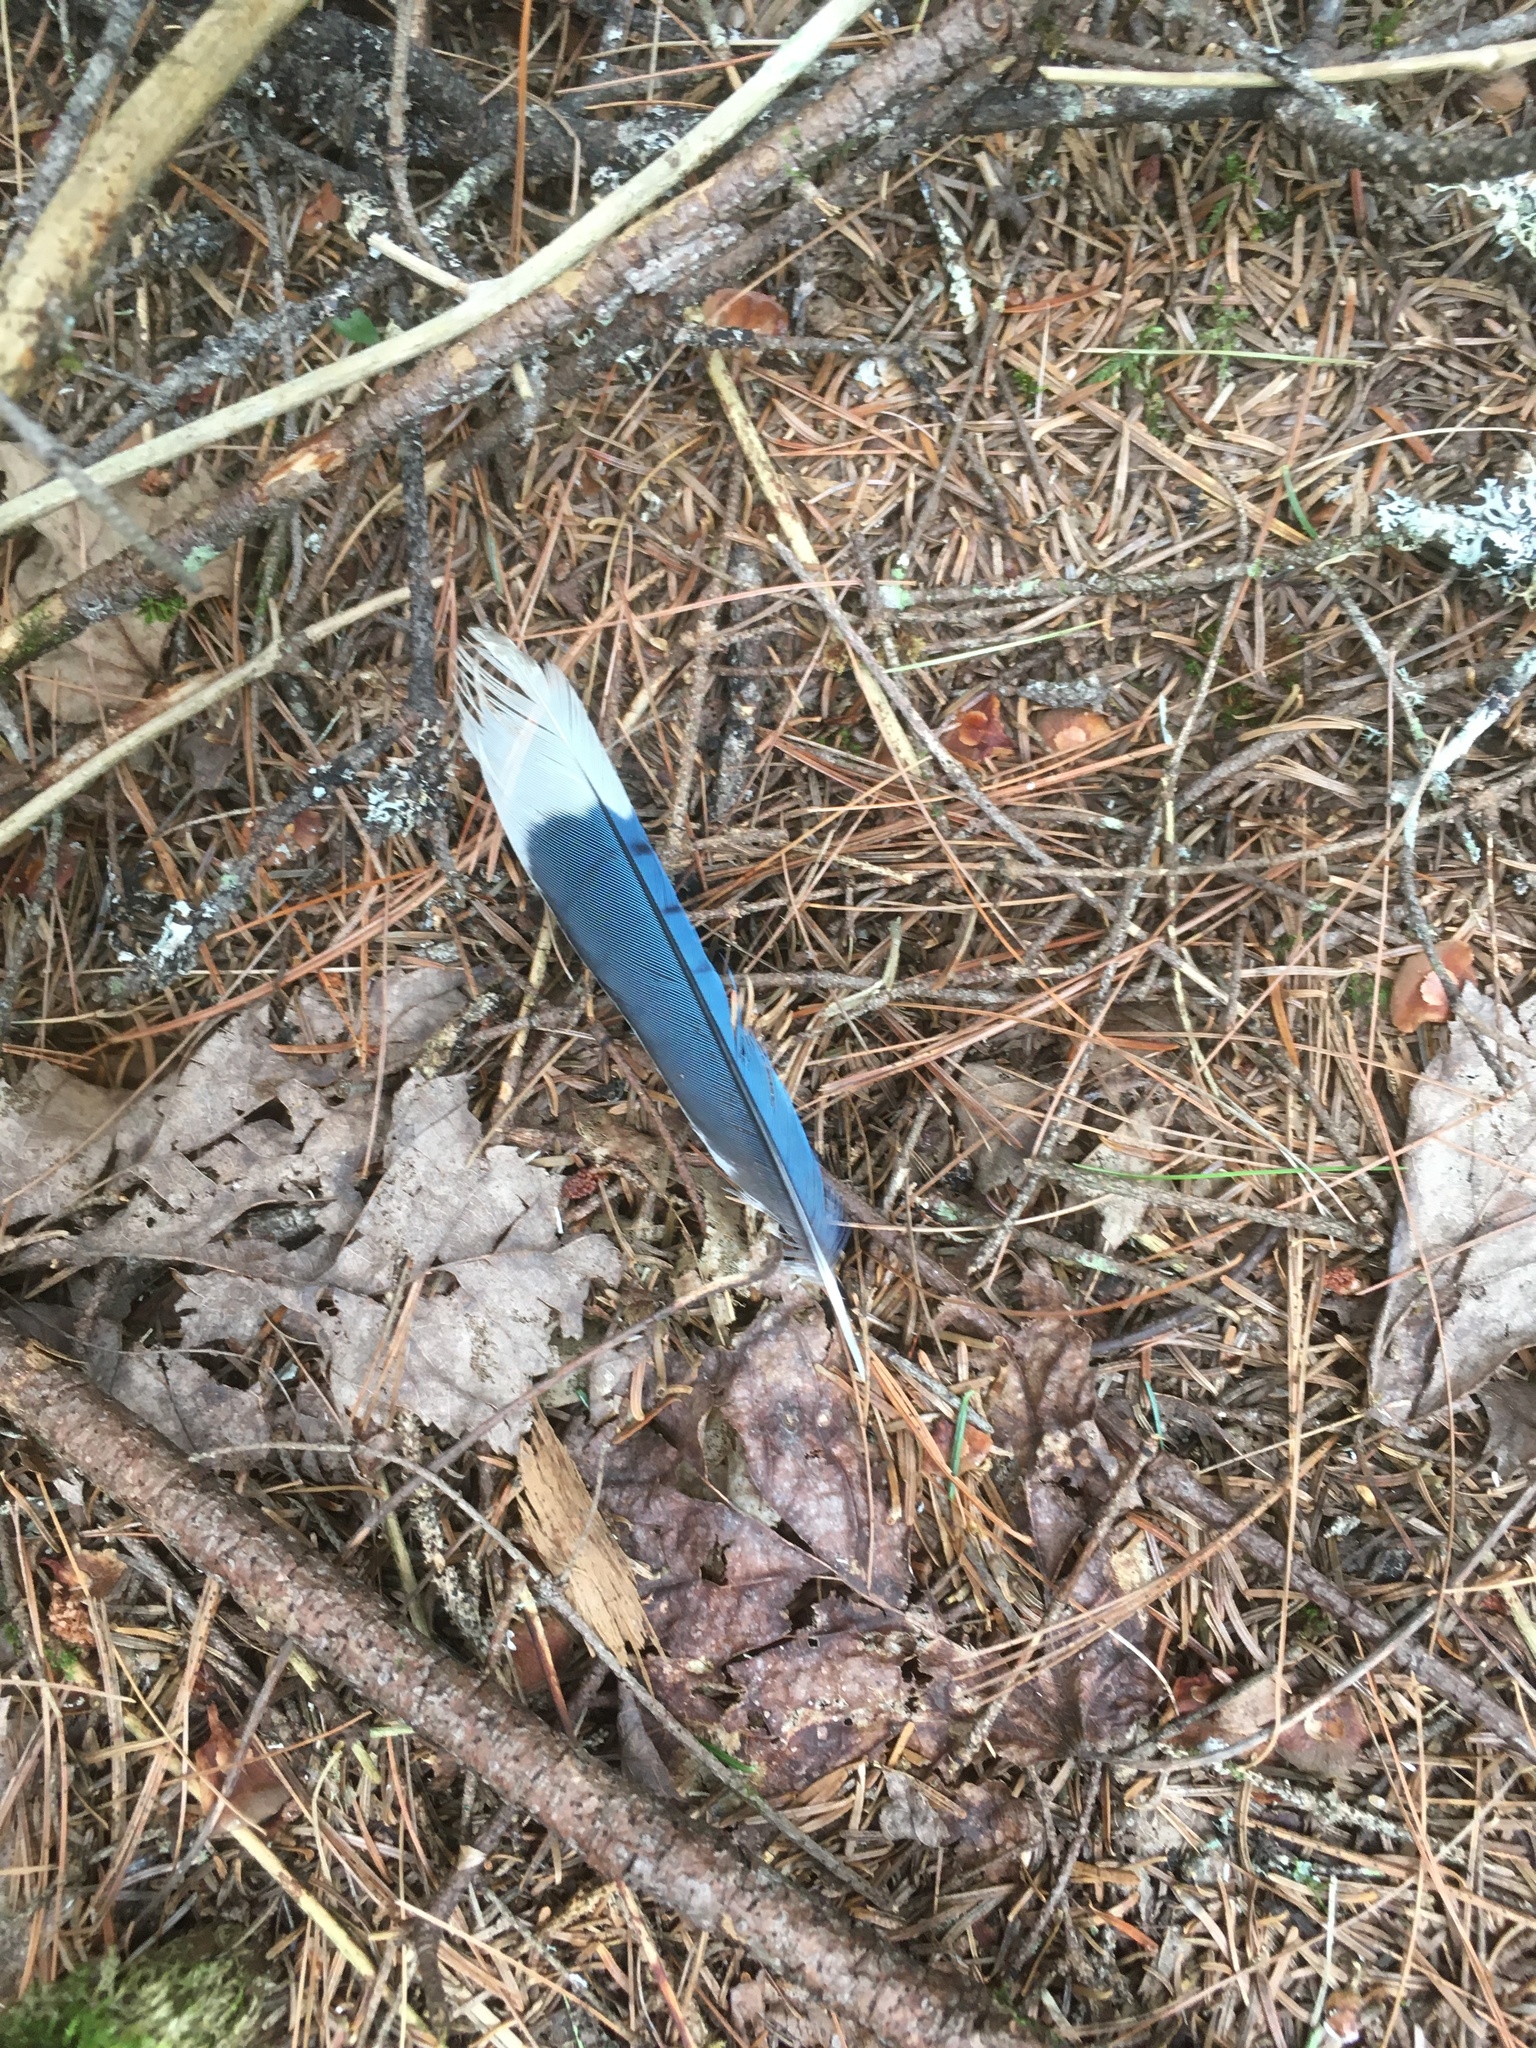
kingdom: Animalia
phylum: Chordata
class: Aves
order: Passeriformes
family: Corvidae
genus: Cyanocitta
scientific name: Cyanocitta cristata
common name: Blue jay
